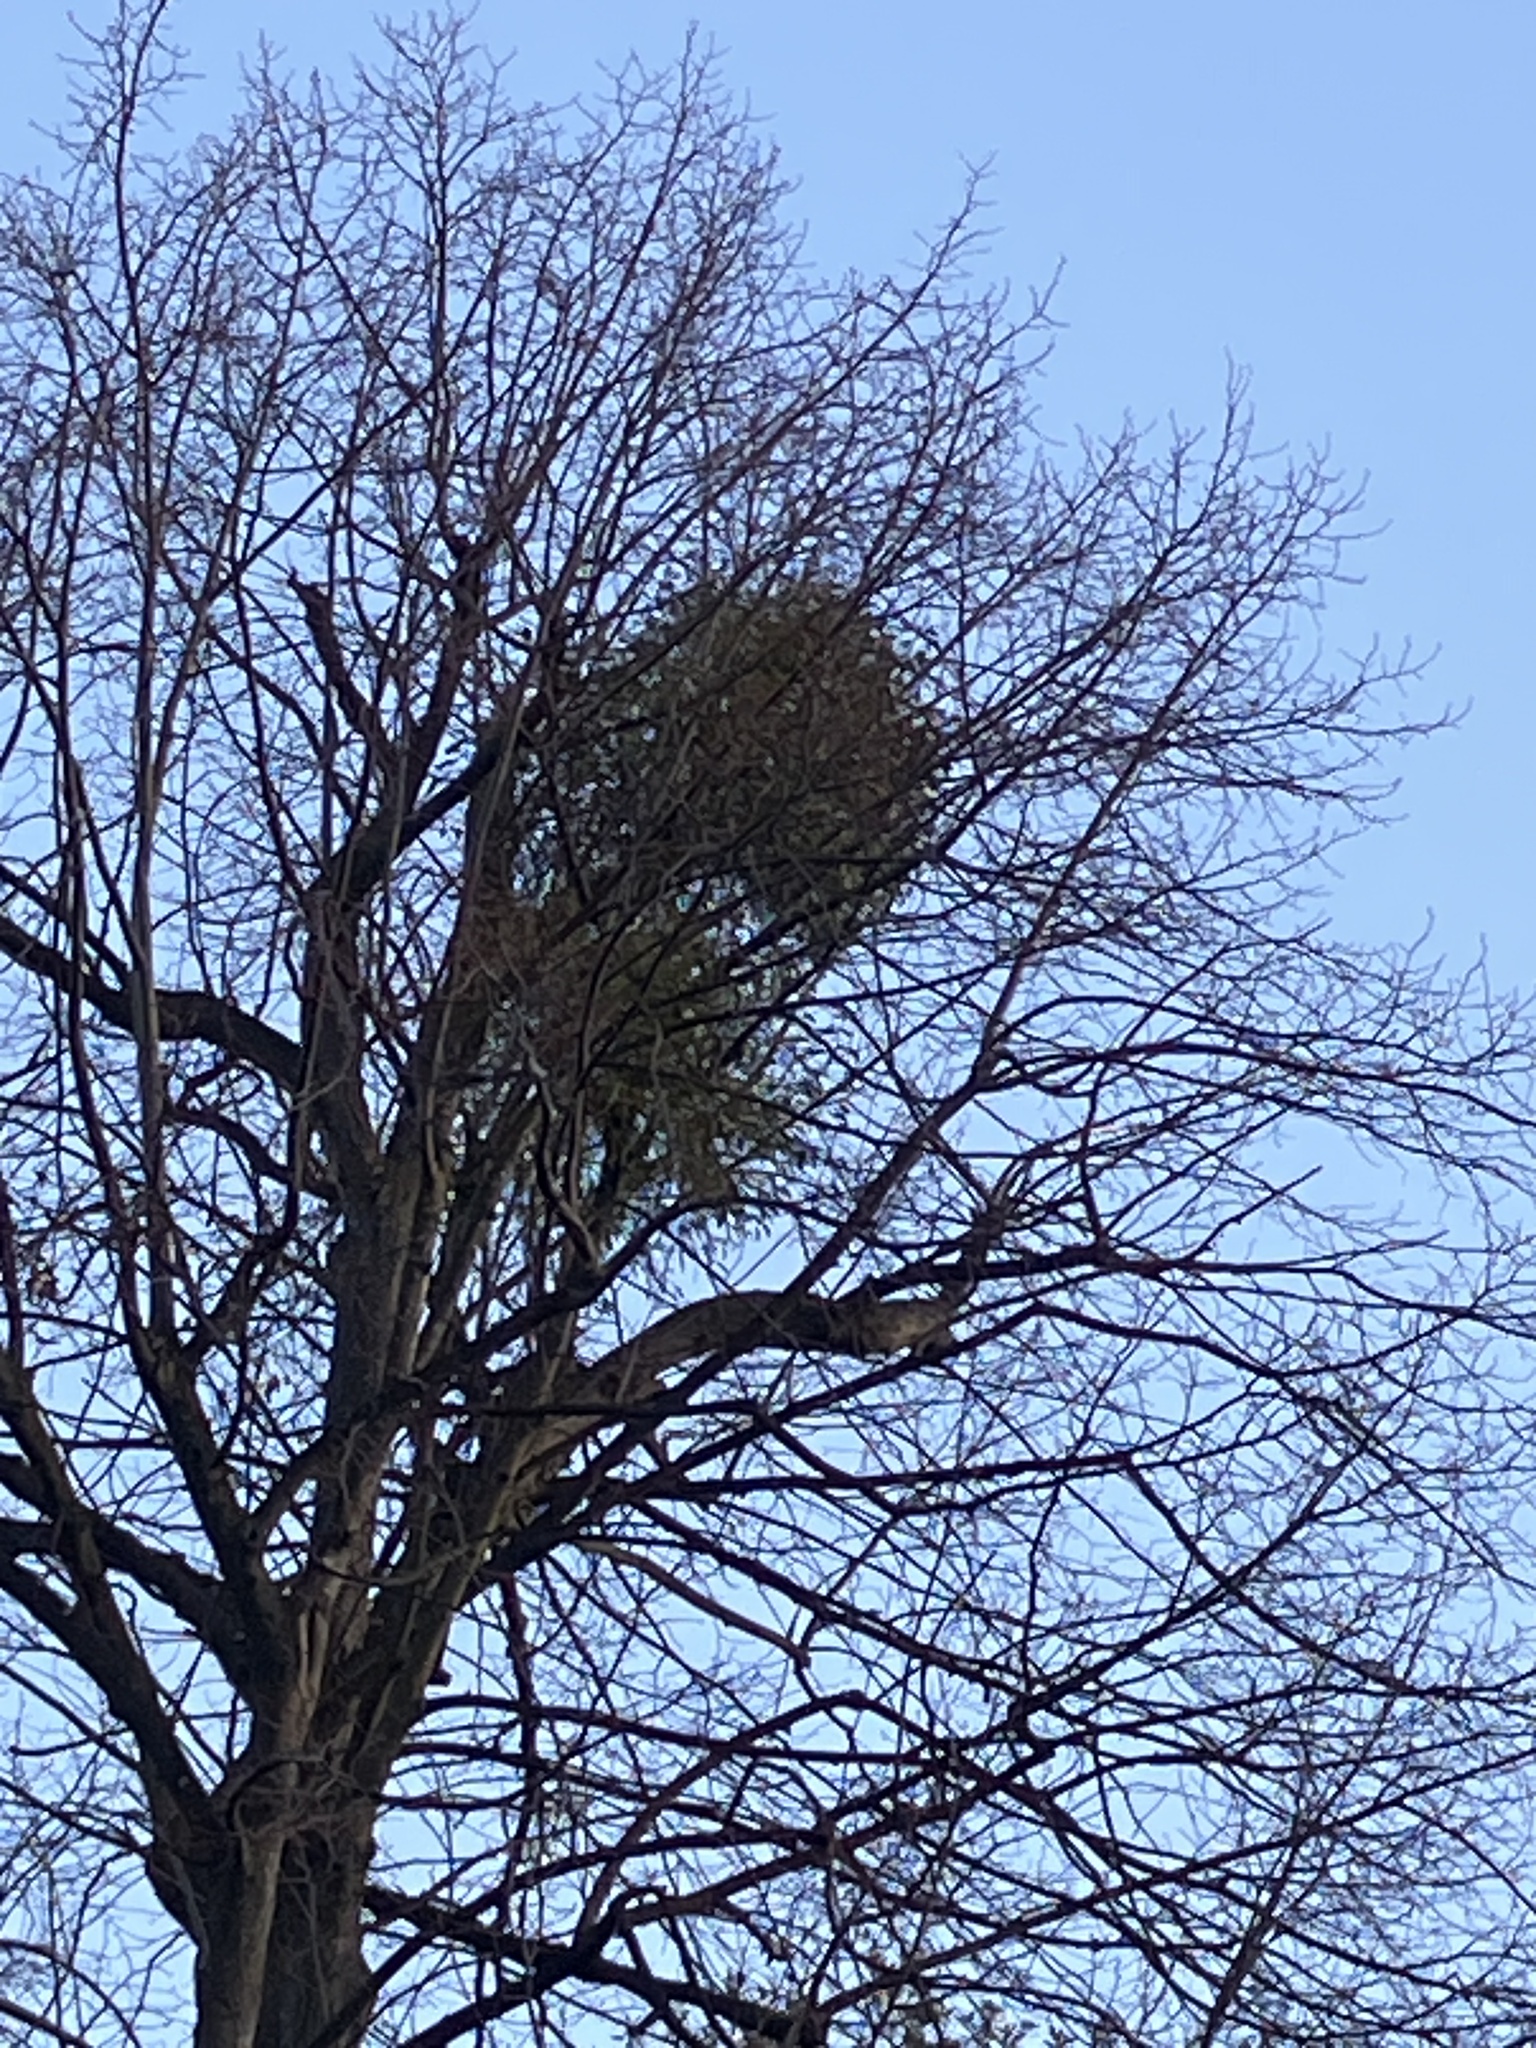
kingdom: Plantae
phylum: Tracheophyta
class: Magnoliopsida
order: Santalales
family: Viscaceae
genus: Viscum
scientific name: Viscum album
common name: Mistletoe
